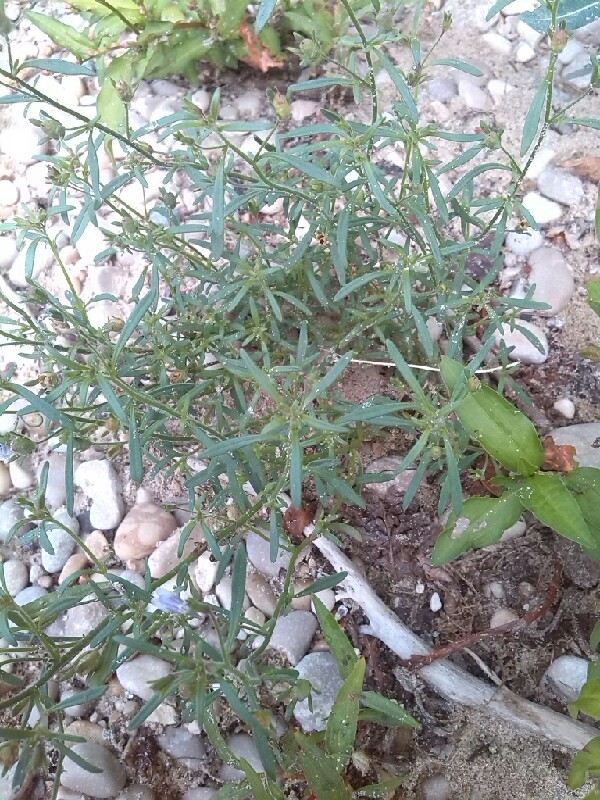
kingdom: Plantae
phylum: Tracheophyta
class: Magnoliopsida
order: Lamiales
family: Plantaginaceae
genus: Chaenorhinum
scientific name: Chaenorhinum minus
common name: Dwarf snapdragon
